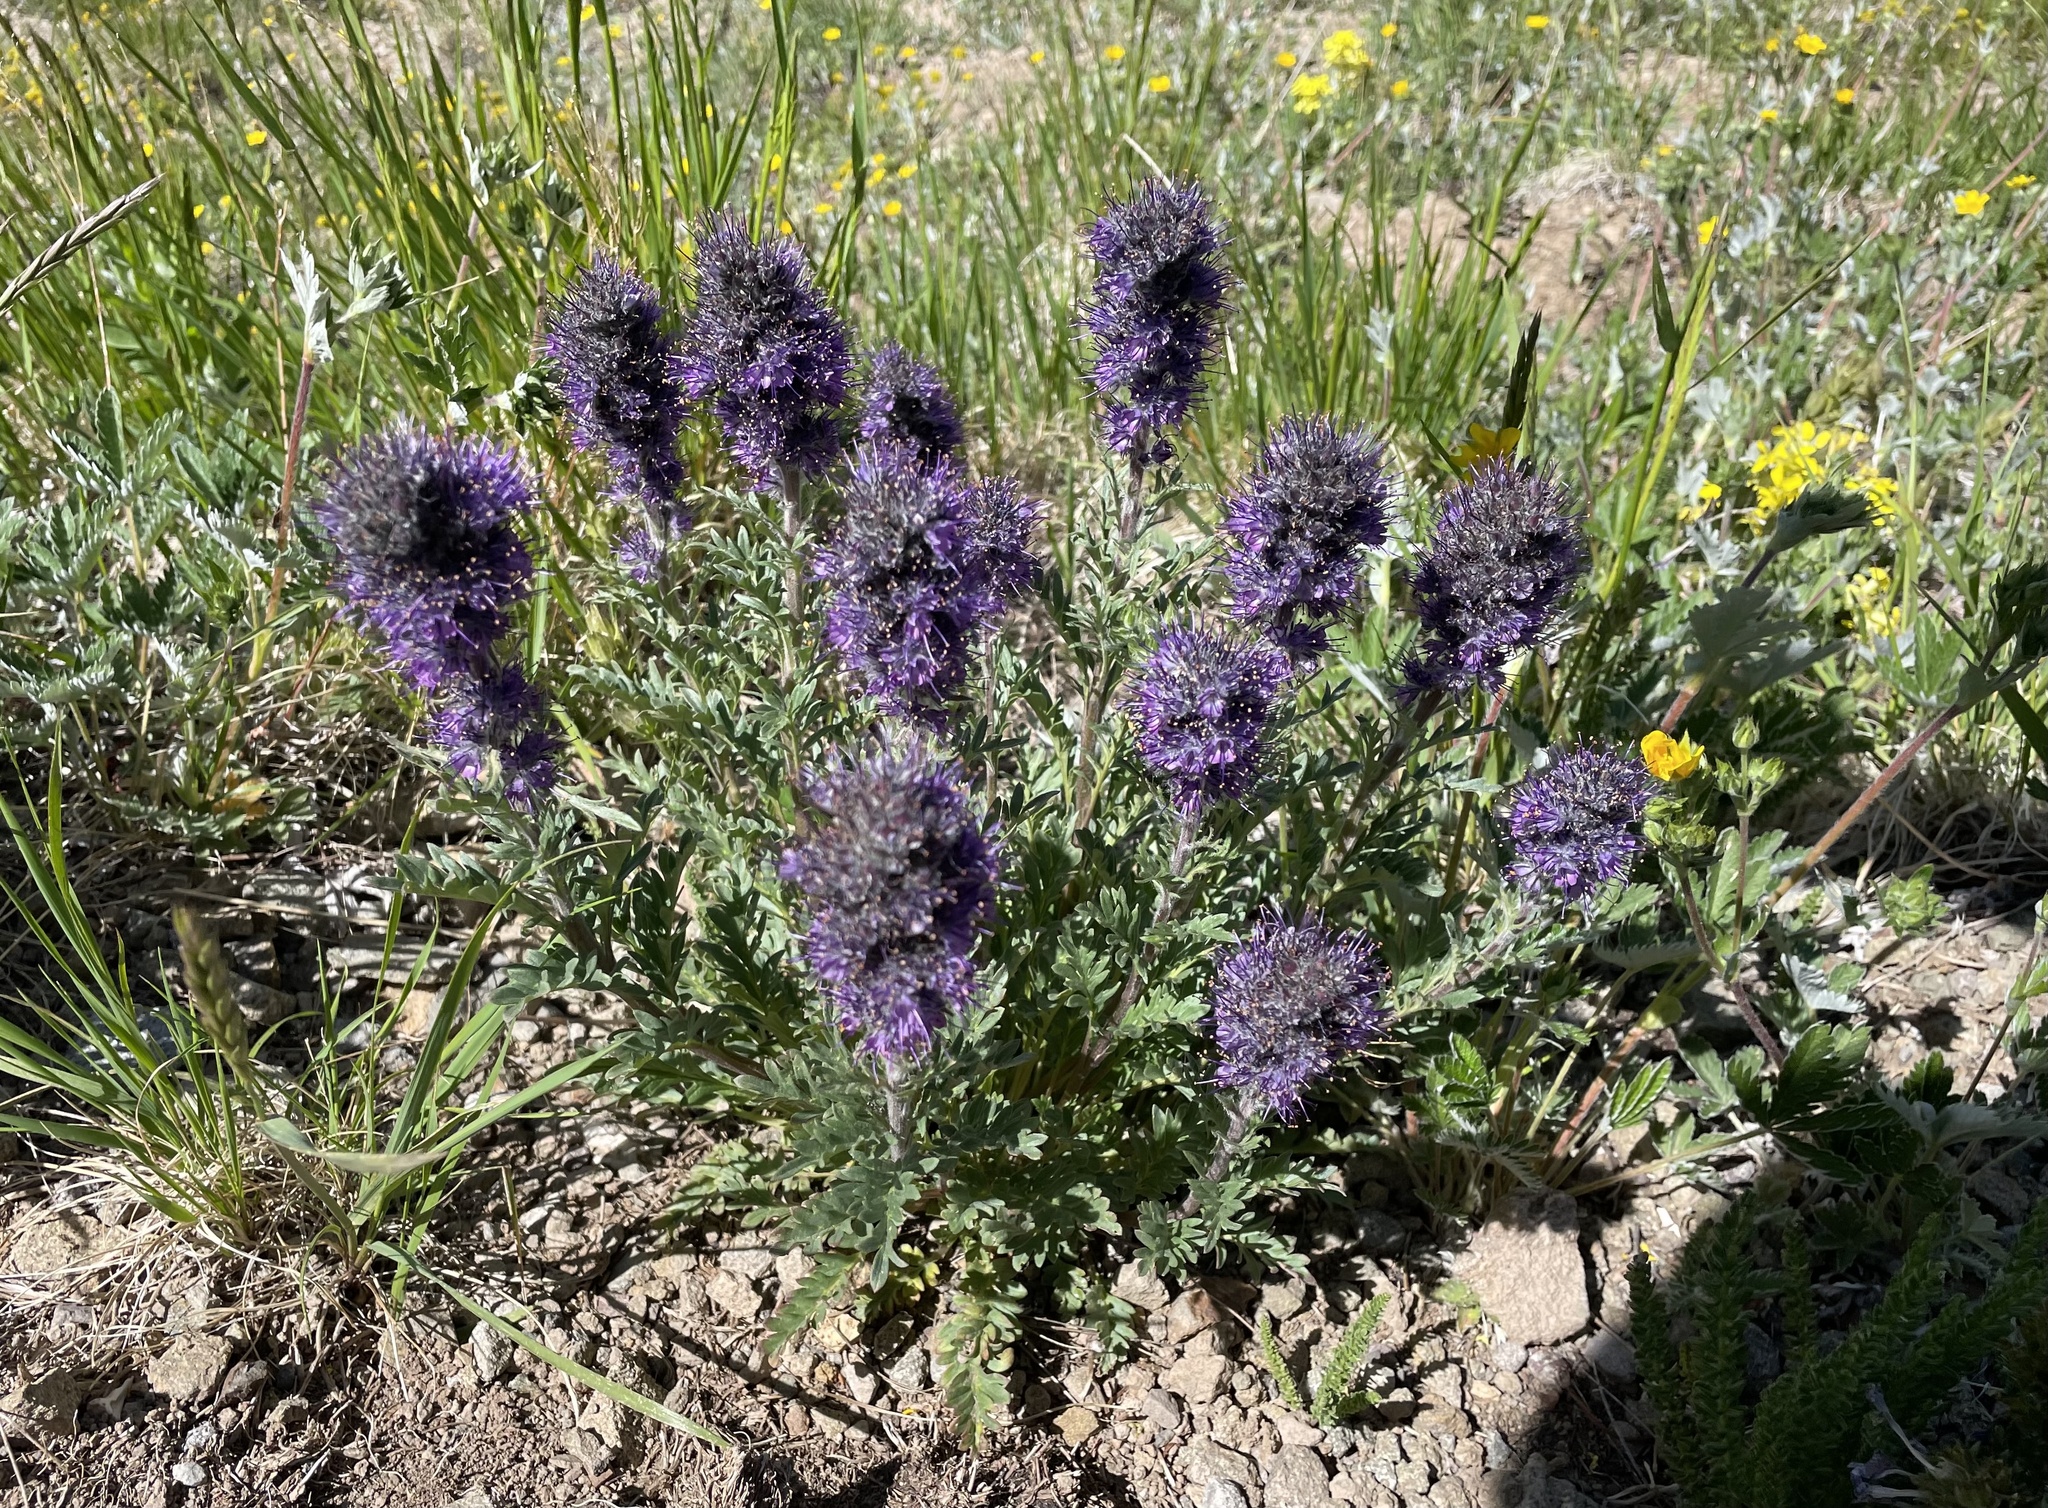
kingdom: Plantae
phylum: Tracheophyta
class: Magnoliopsida
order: Boraginales
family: Hydrophyllaceae
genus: Phacelia
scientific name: Phacelia sericea
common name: Silky phacelia
